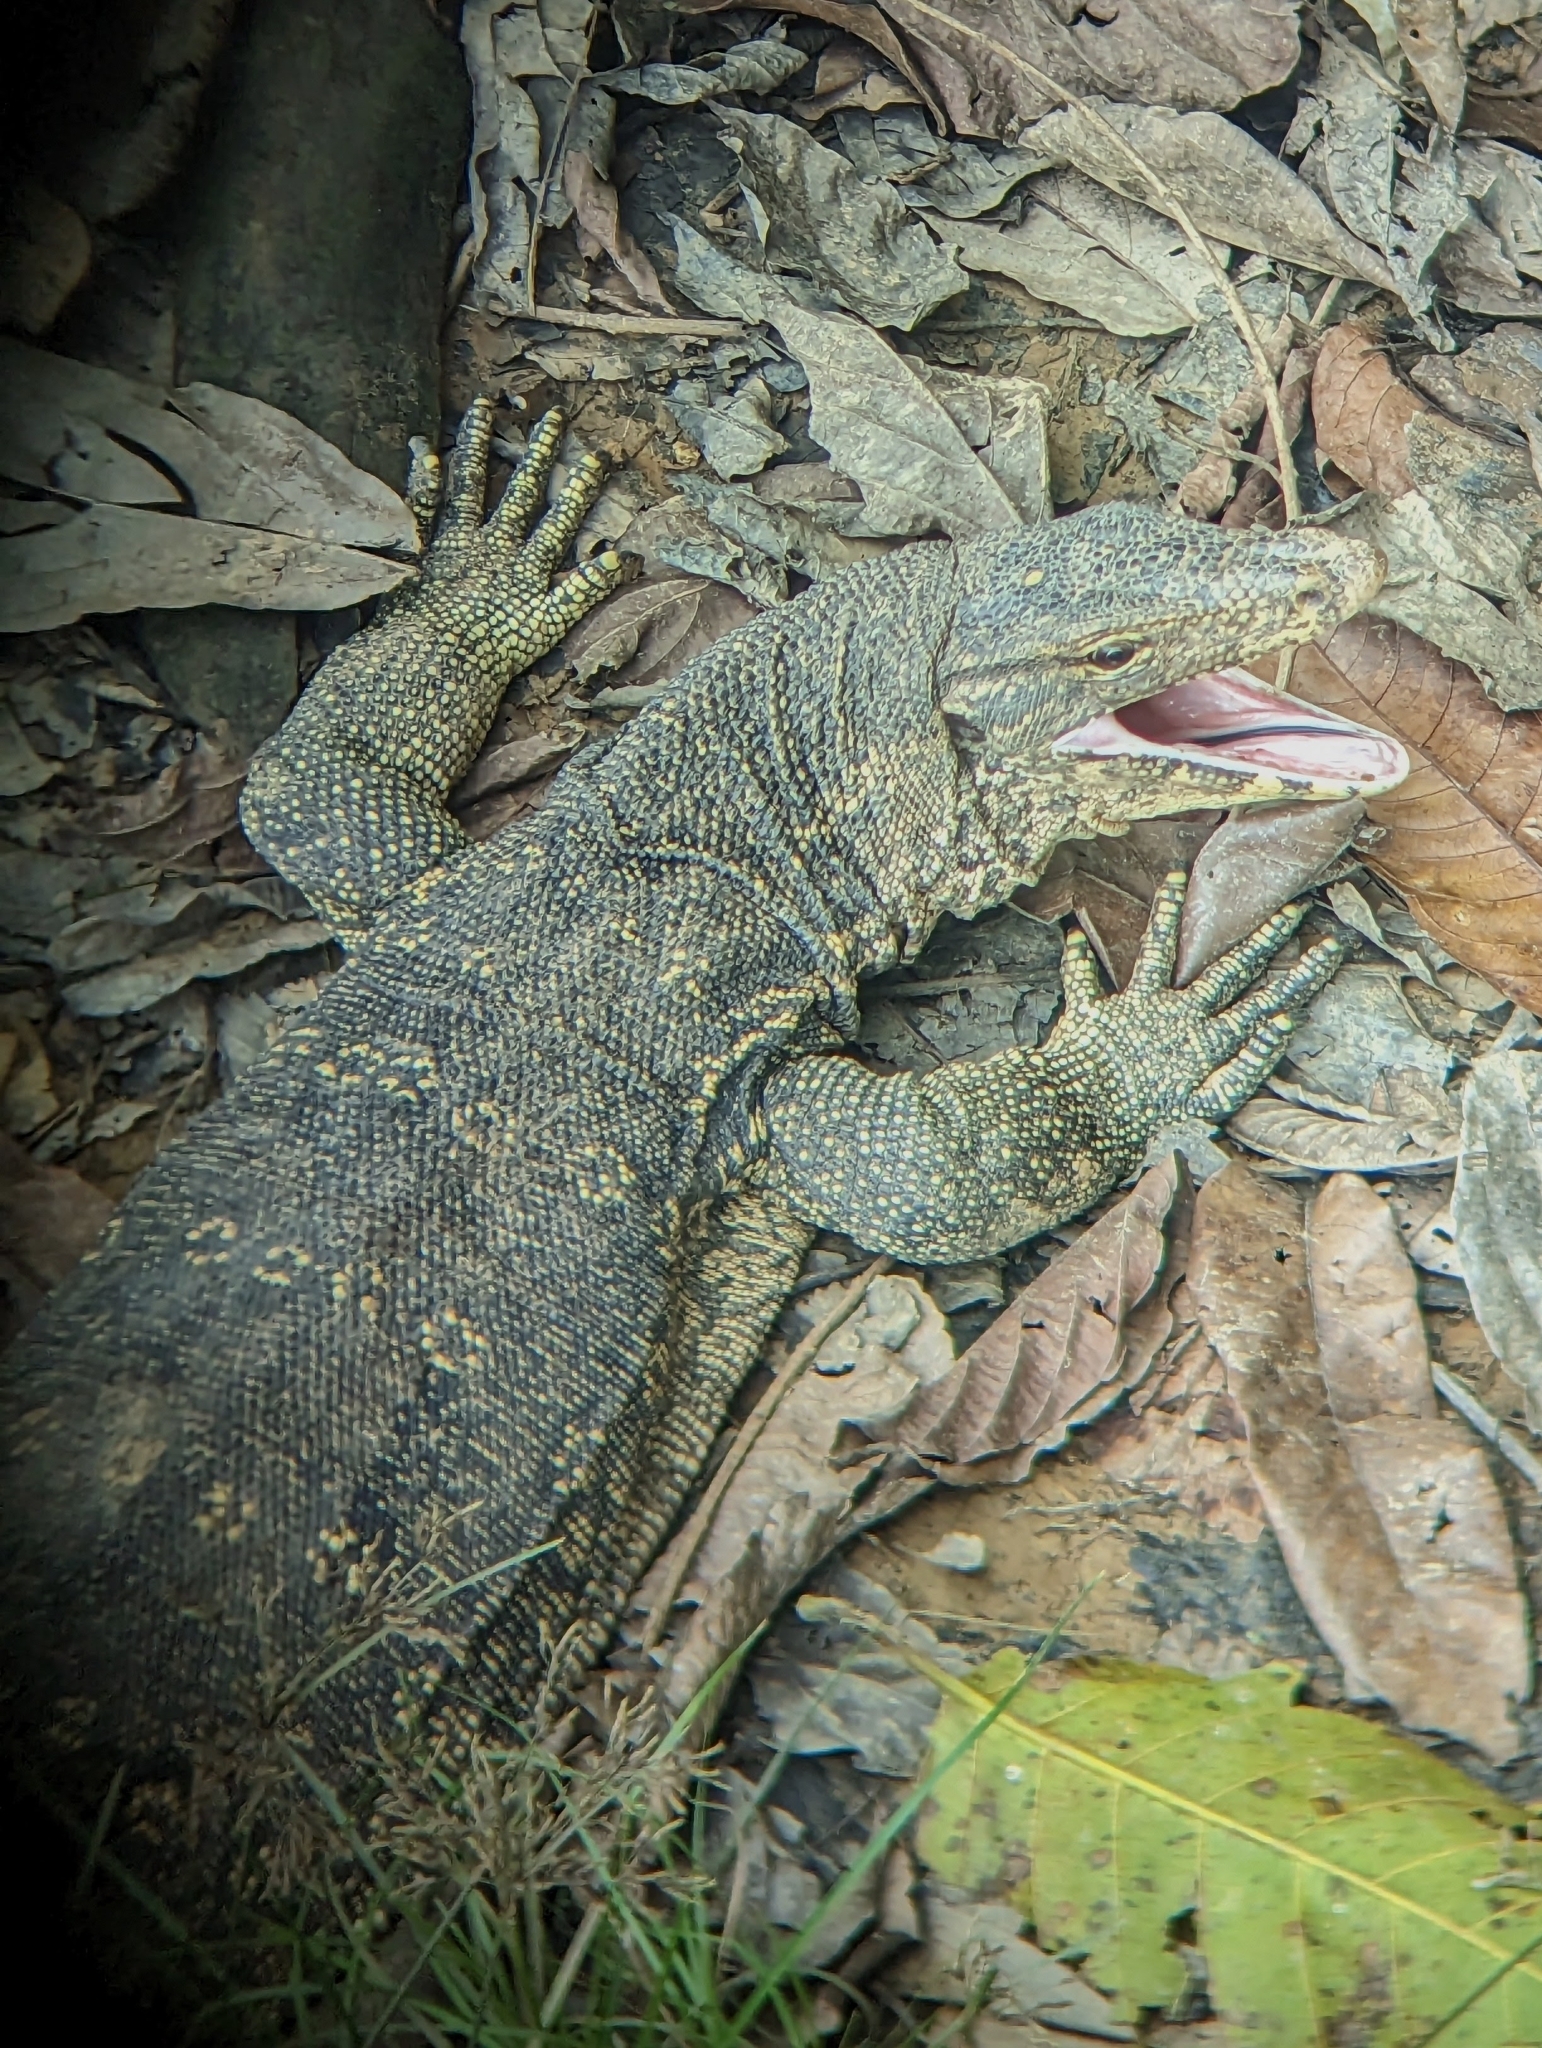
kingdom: Animalia
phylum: Chordata
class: Squamata
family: Varanidae
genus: Varanus
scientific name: Varanus salvator
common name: Common water monitor
